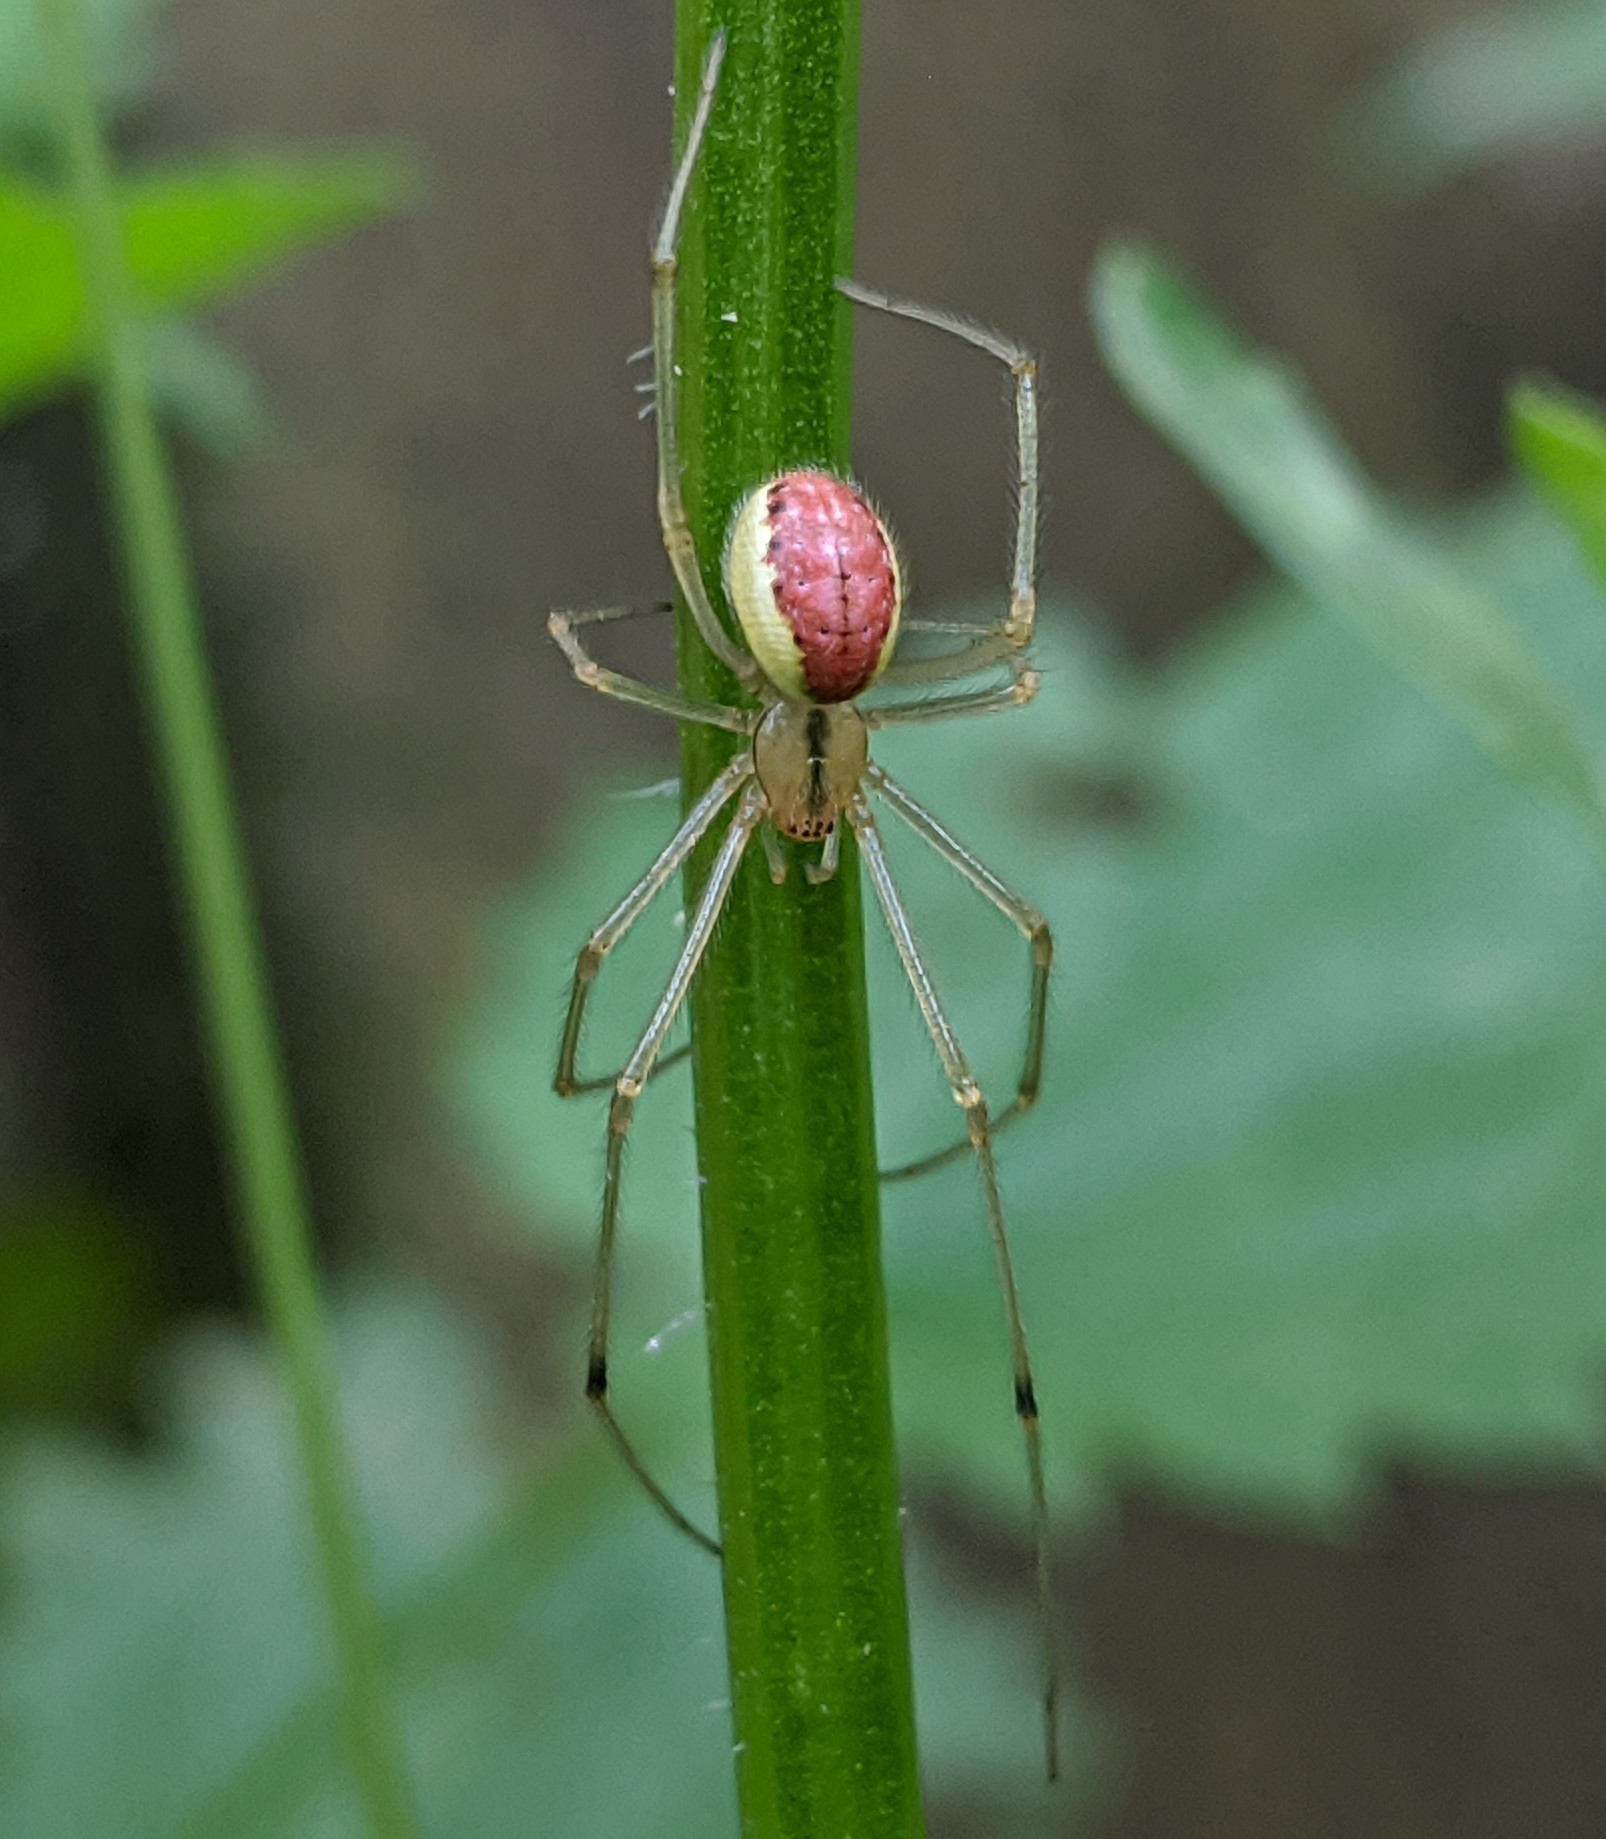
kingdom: Animalia
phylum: Arthropoda
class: Arachnida
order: Araneae
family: Theridiidae
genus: Enoplognatha
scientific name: Enoplognatha
